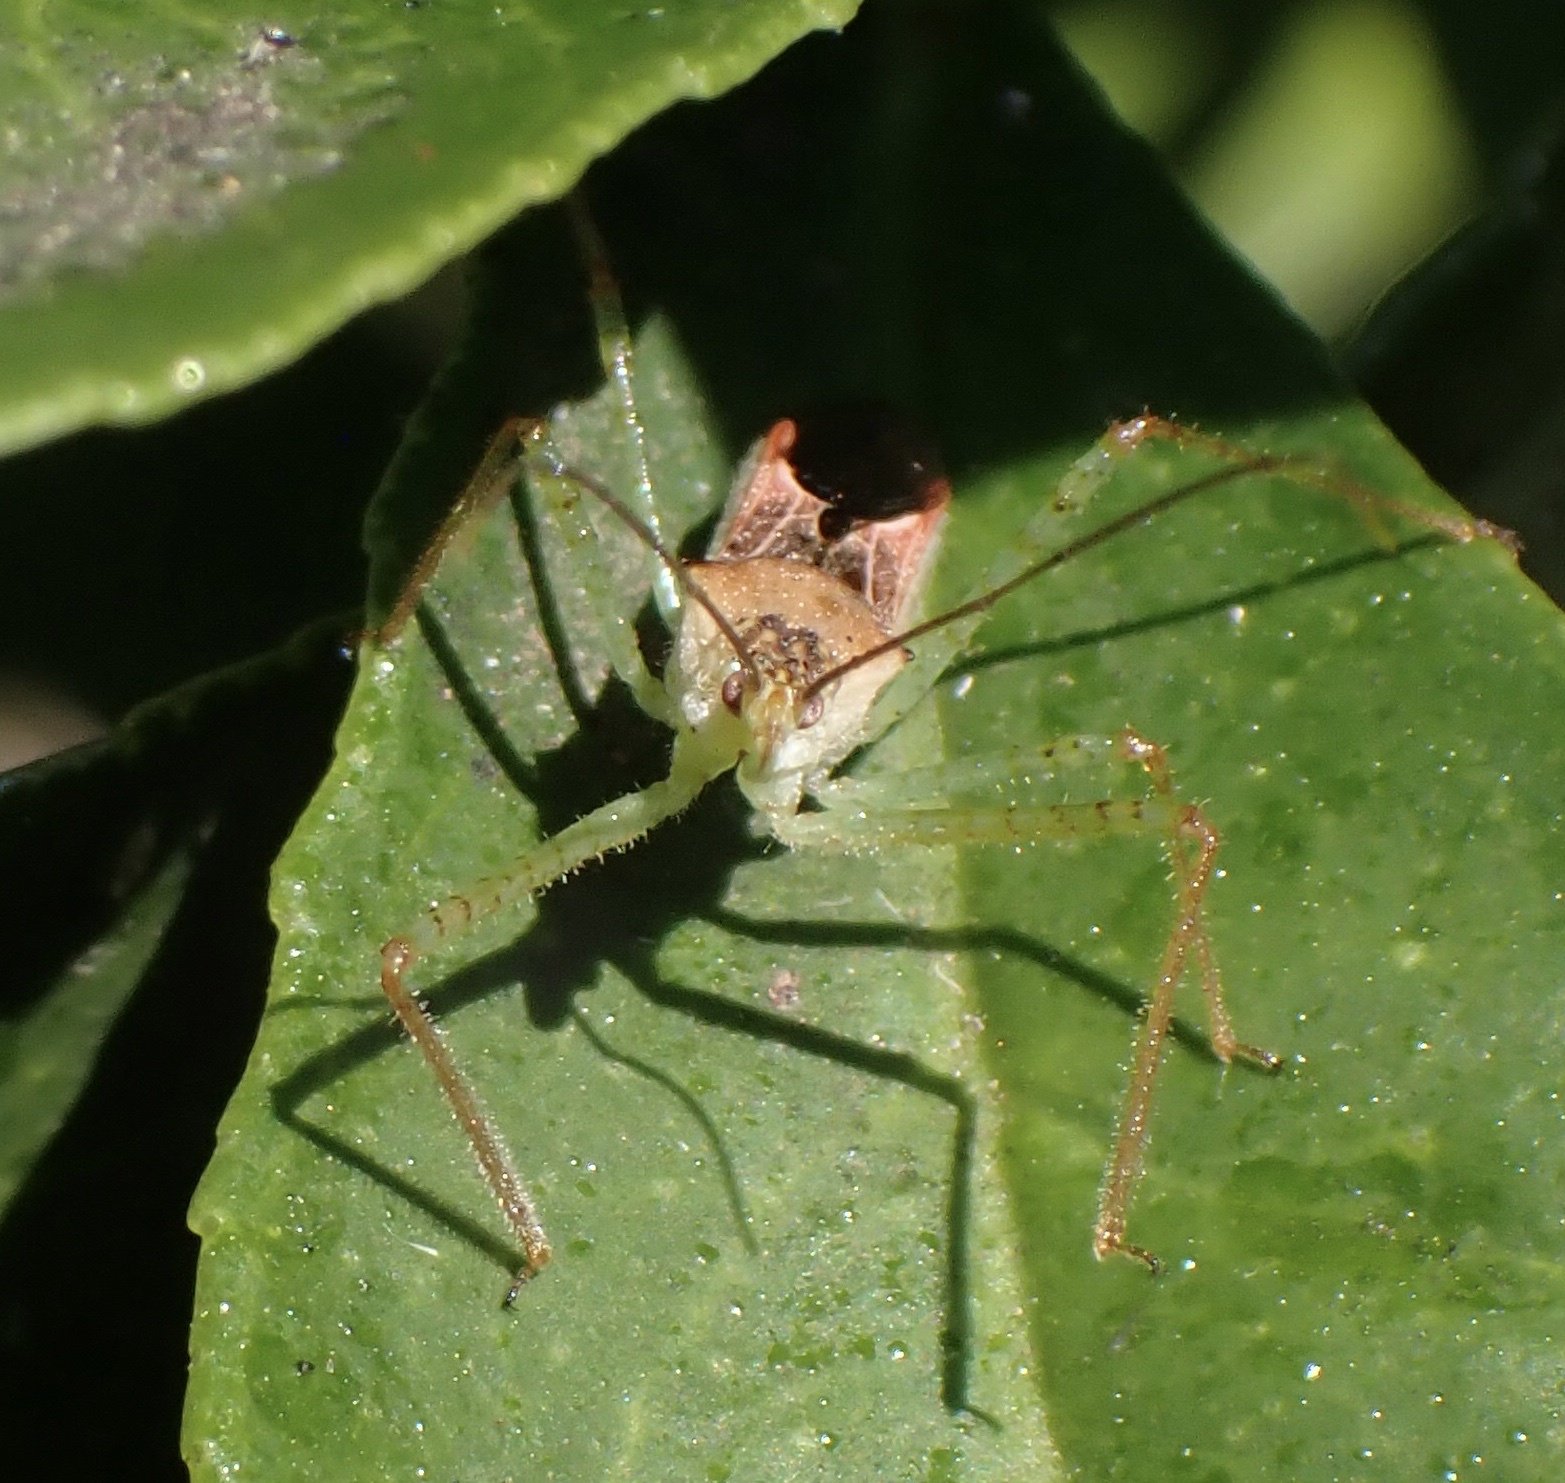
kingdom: Animalia
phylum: Arthropoda
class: Insecta
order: Hemiptera
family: Reduviidae
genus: Zelus
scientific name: Zelus renardii
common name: Assassin bug
